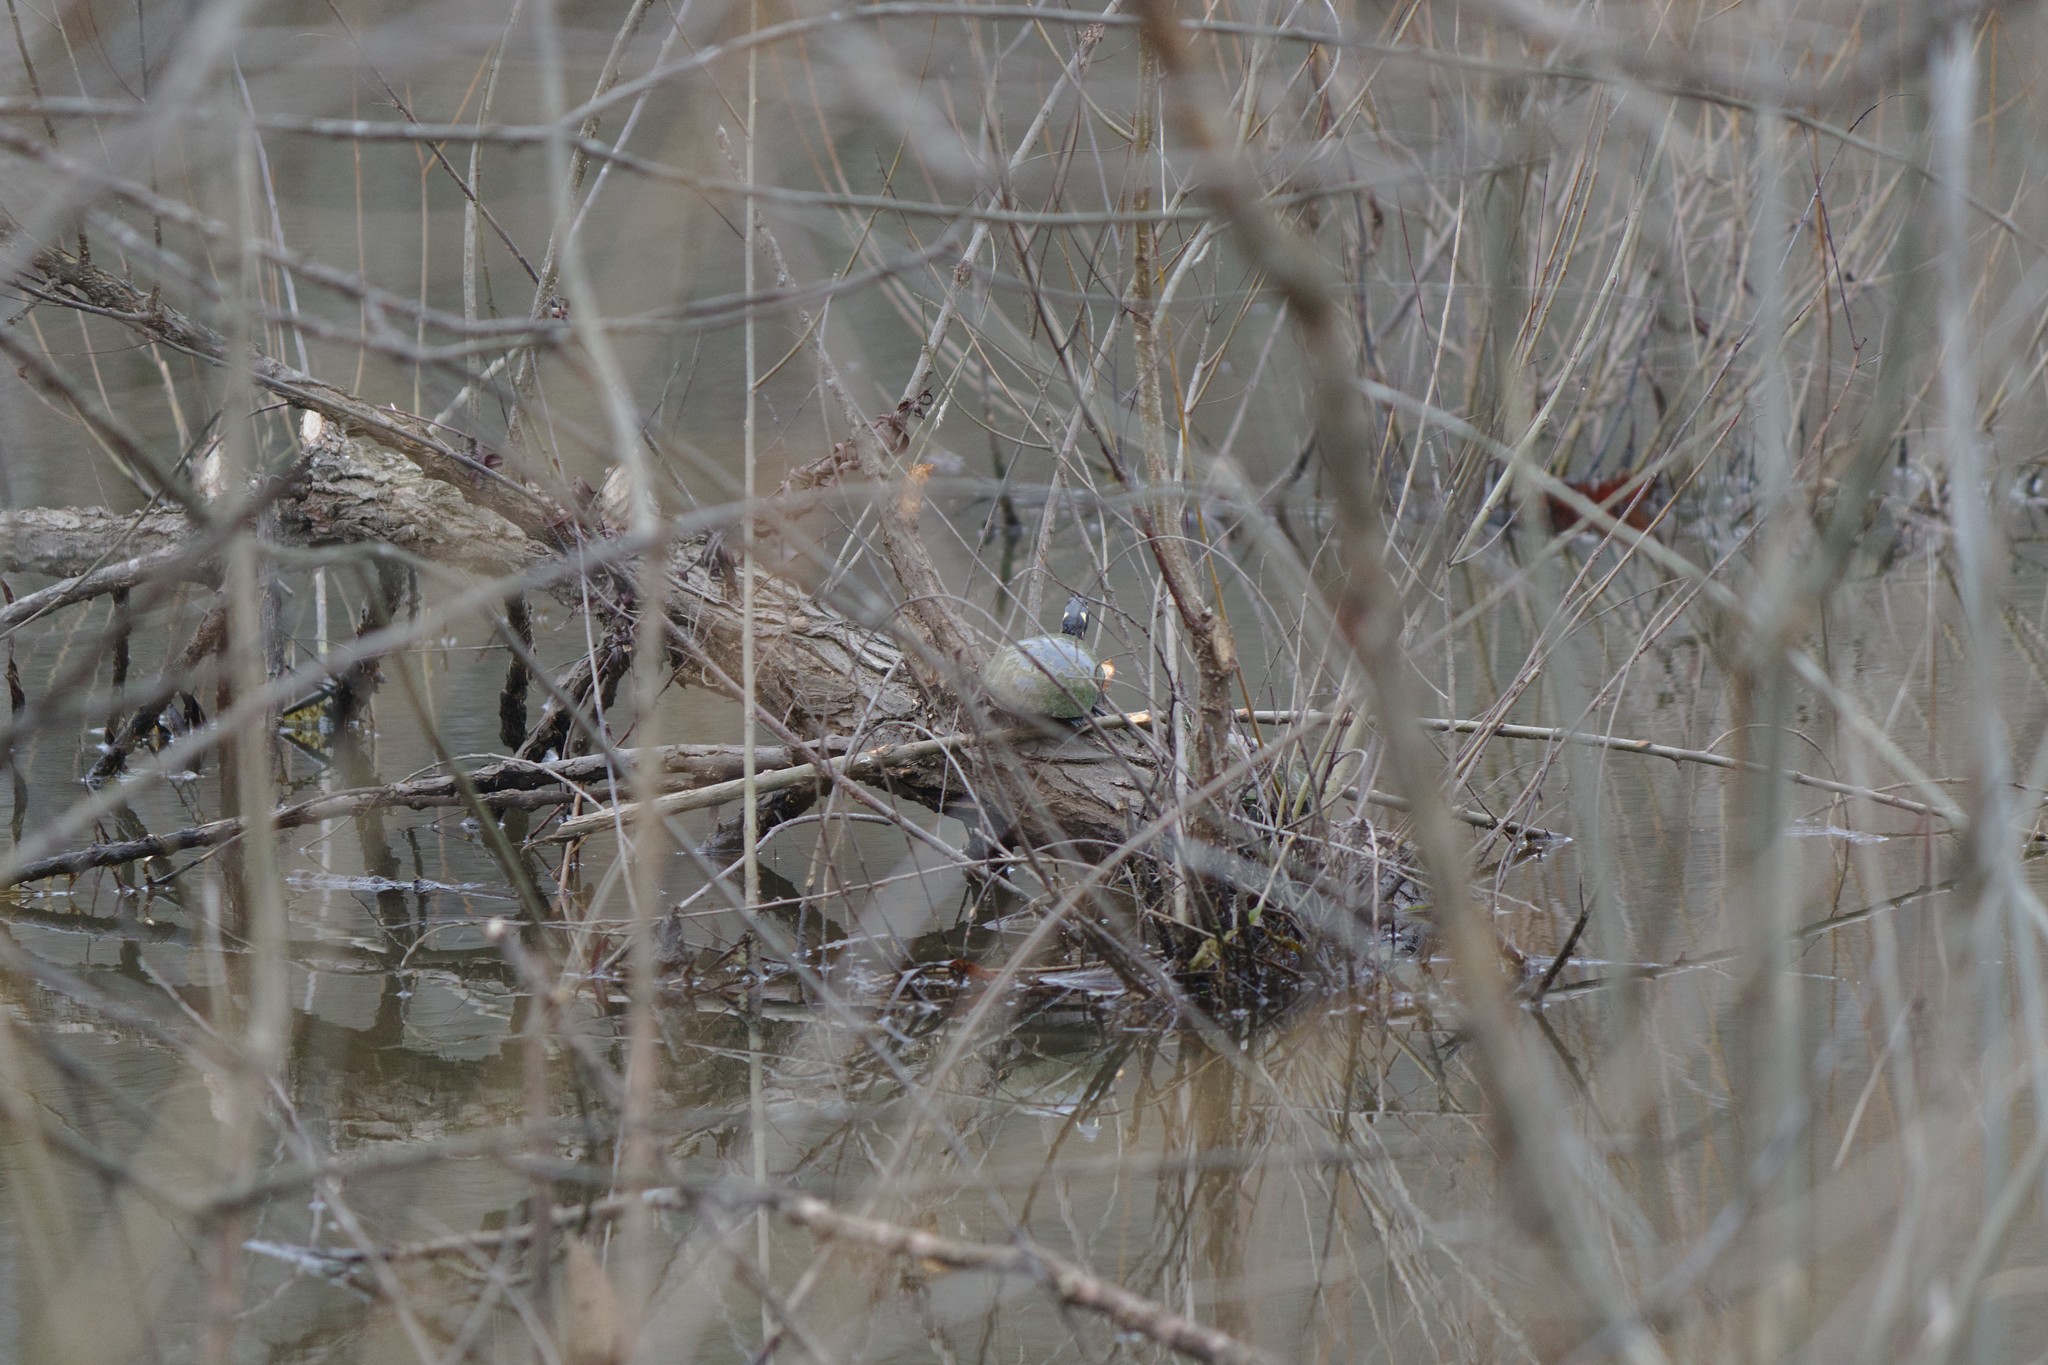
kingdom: Animalia
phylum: Chordata
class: Testudines
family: Emydidae
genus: Chrysemys
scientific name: Chrysemys picta
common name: Painted turtle
